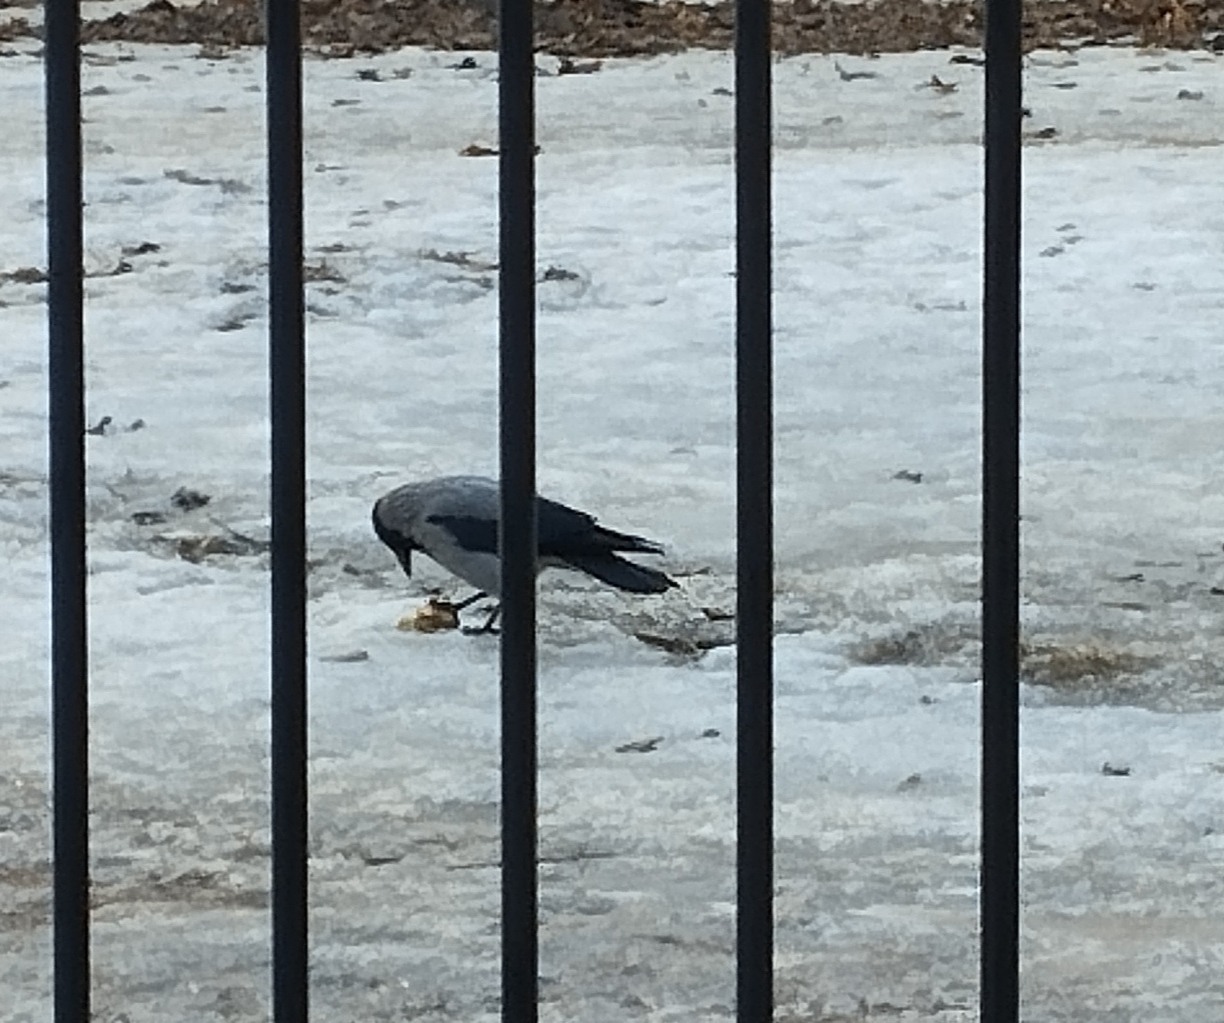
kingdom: Animalia
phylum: Chordata
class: Aves
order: Passeriformes
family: Corvidae
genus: Corvus
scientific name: Corvus cornix
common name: Hooded crow
